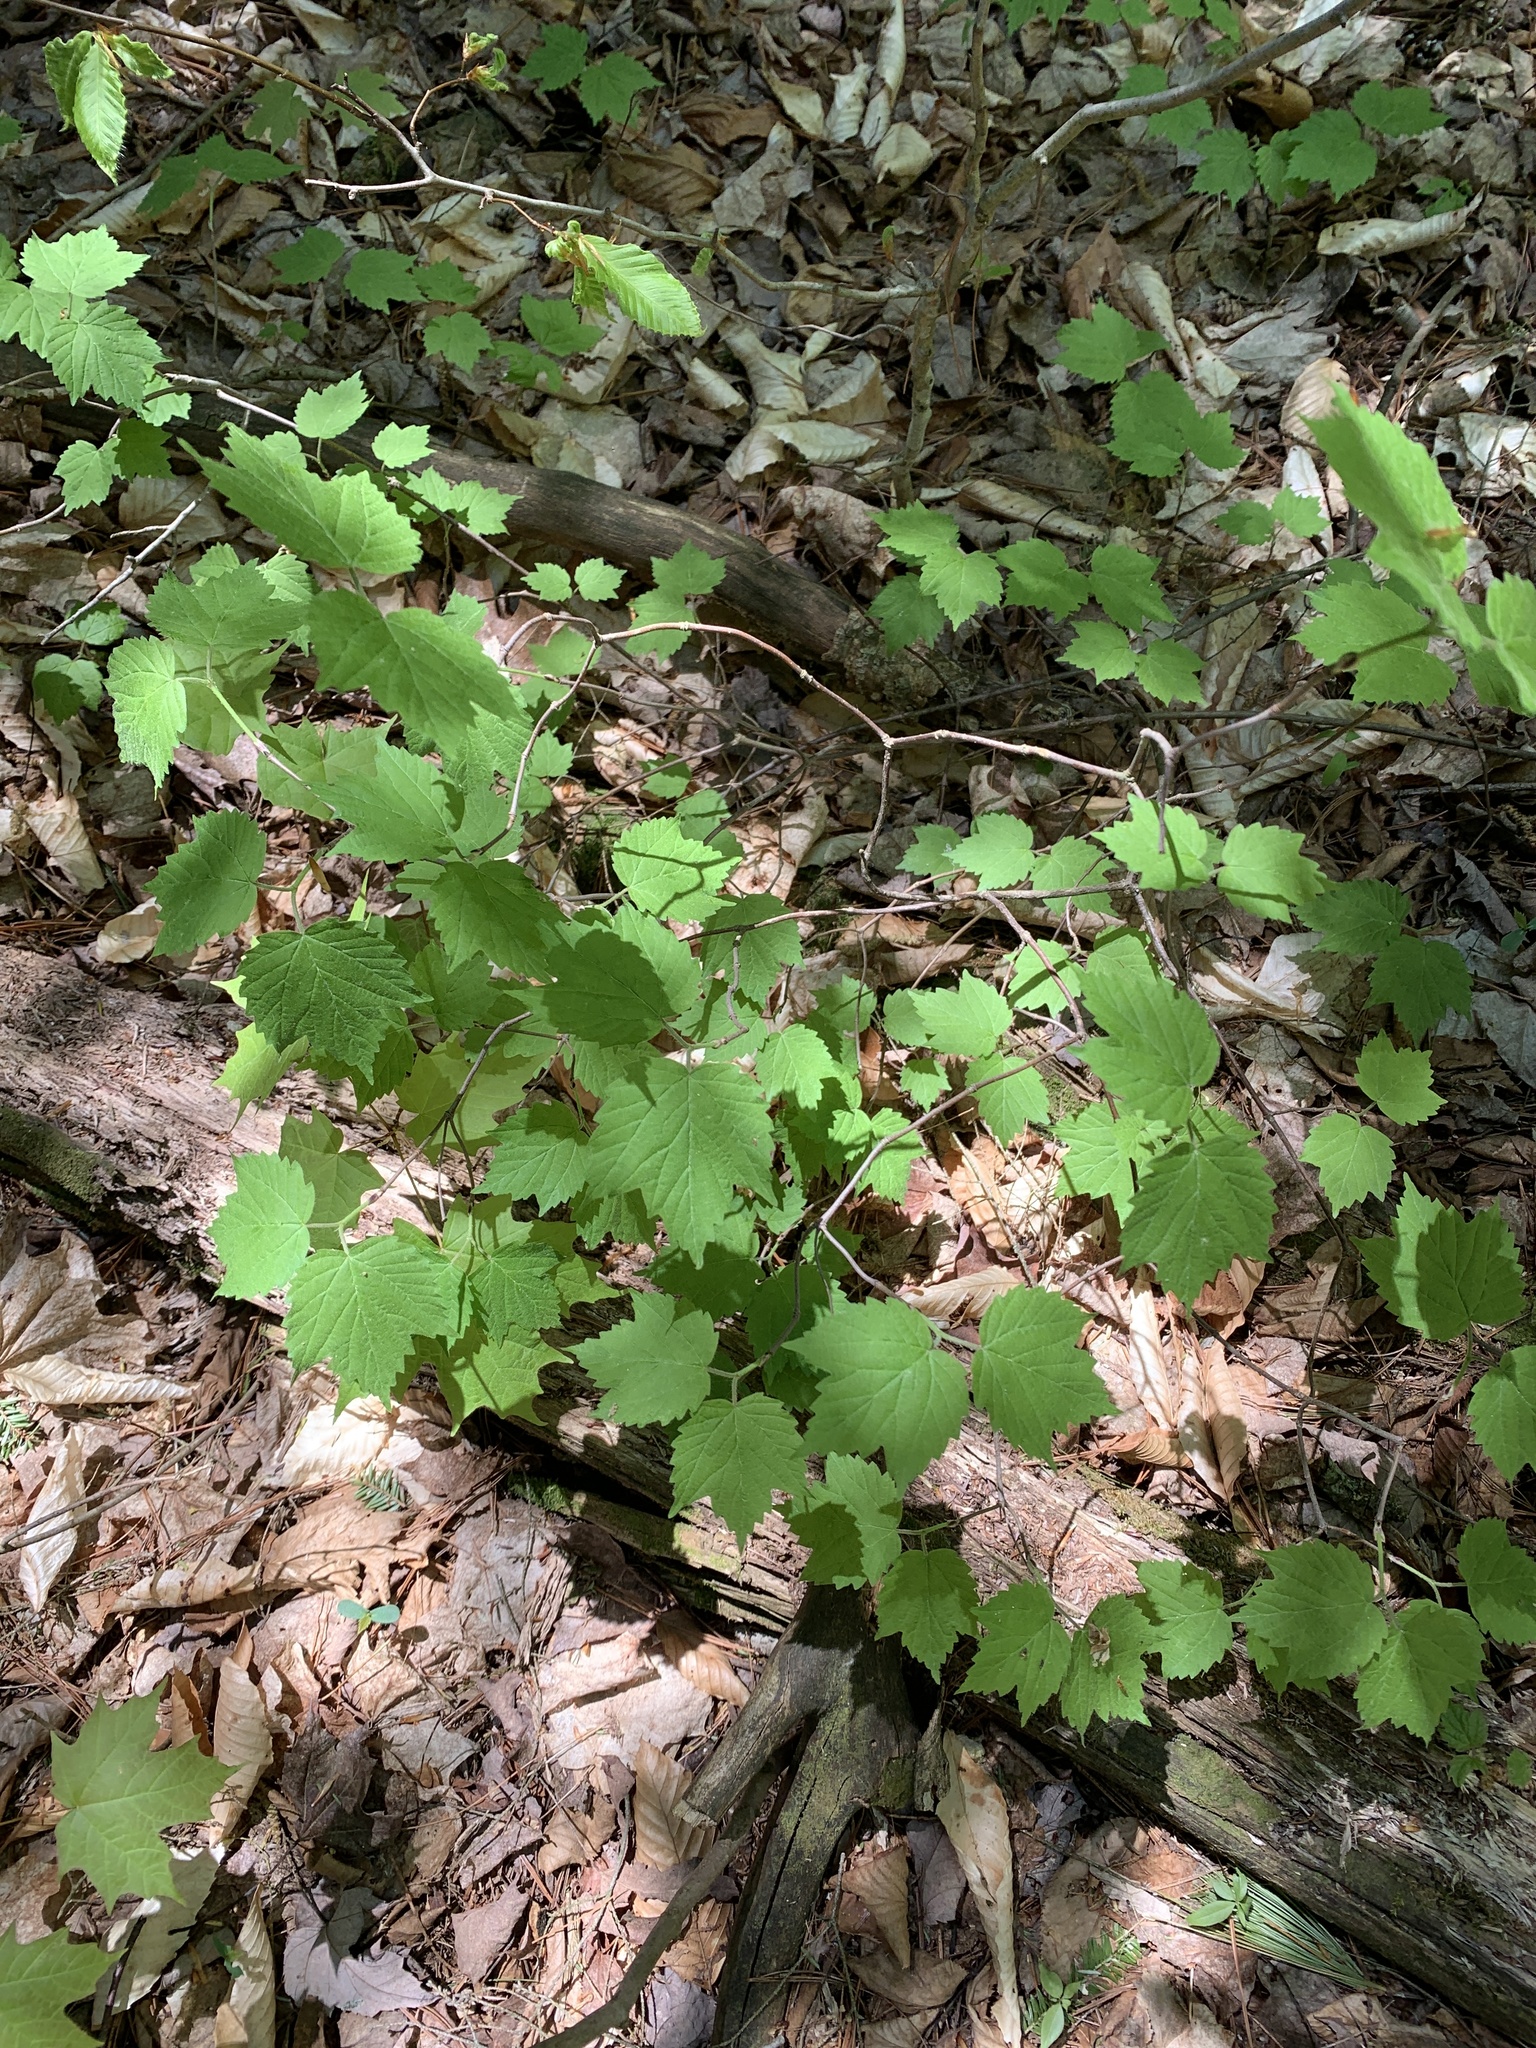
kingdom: Plantae
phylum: Tracheophyta
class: Magnoliopsida
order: Dipsacales
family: Viburnaceae
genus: Viburnum
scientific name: Viburnum acerifolium
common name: Dockmackie
